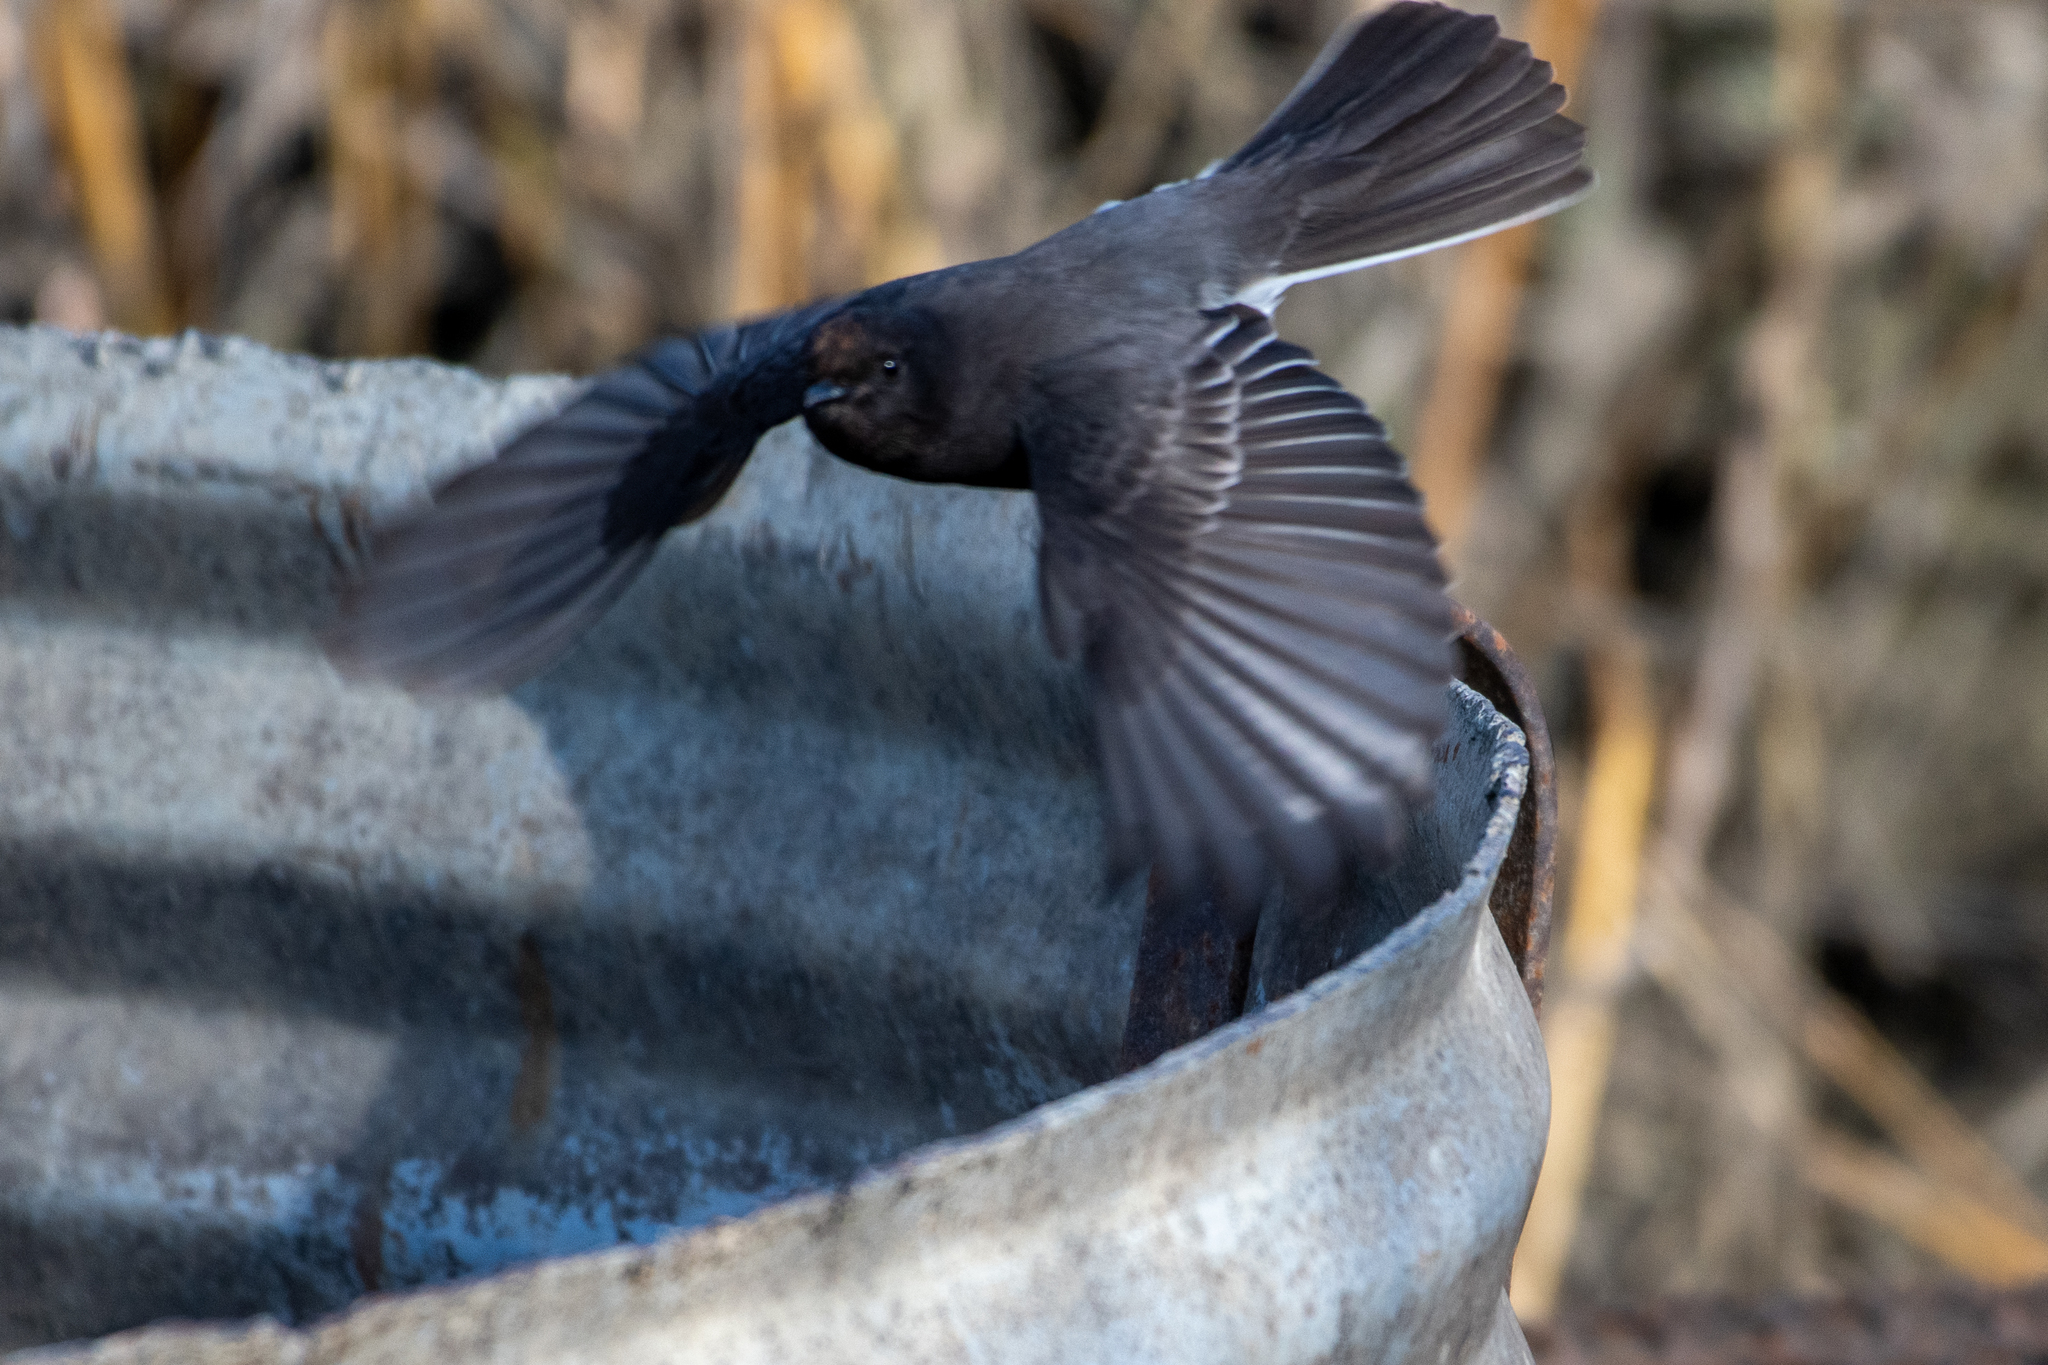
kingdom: Animalia
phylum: Chordata
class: Aves
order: Passeriformes
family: Tyrannidae
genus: Sayornis
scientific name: Sayornis nigricans
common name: Black phoebe
